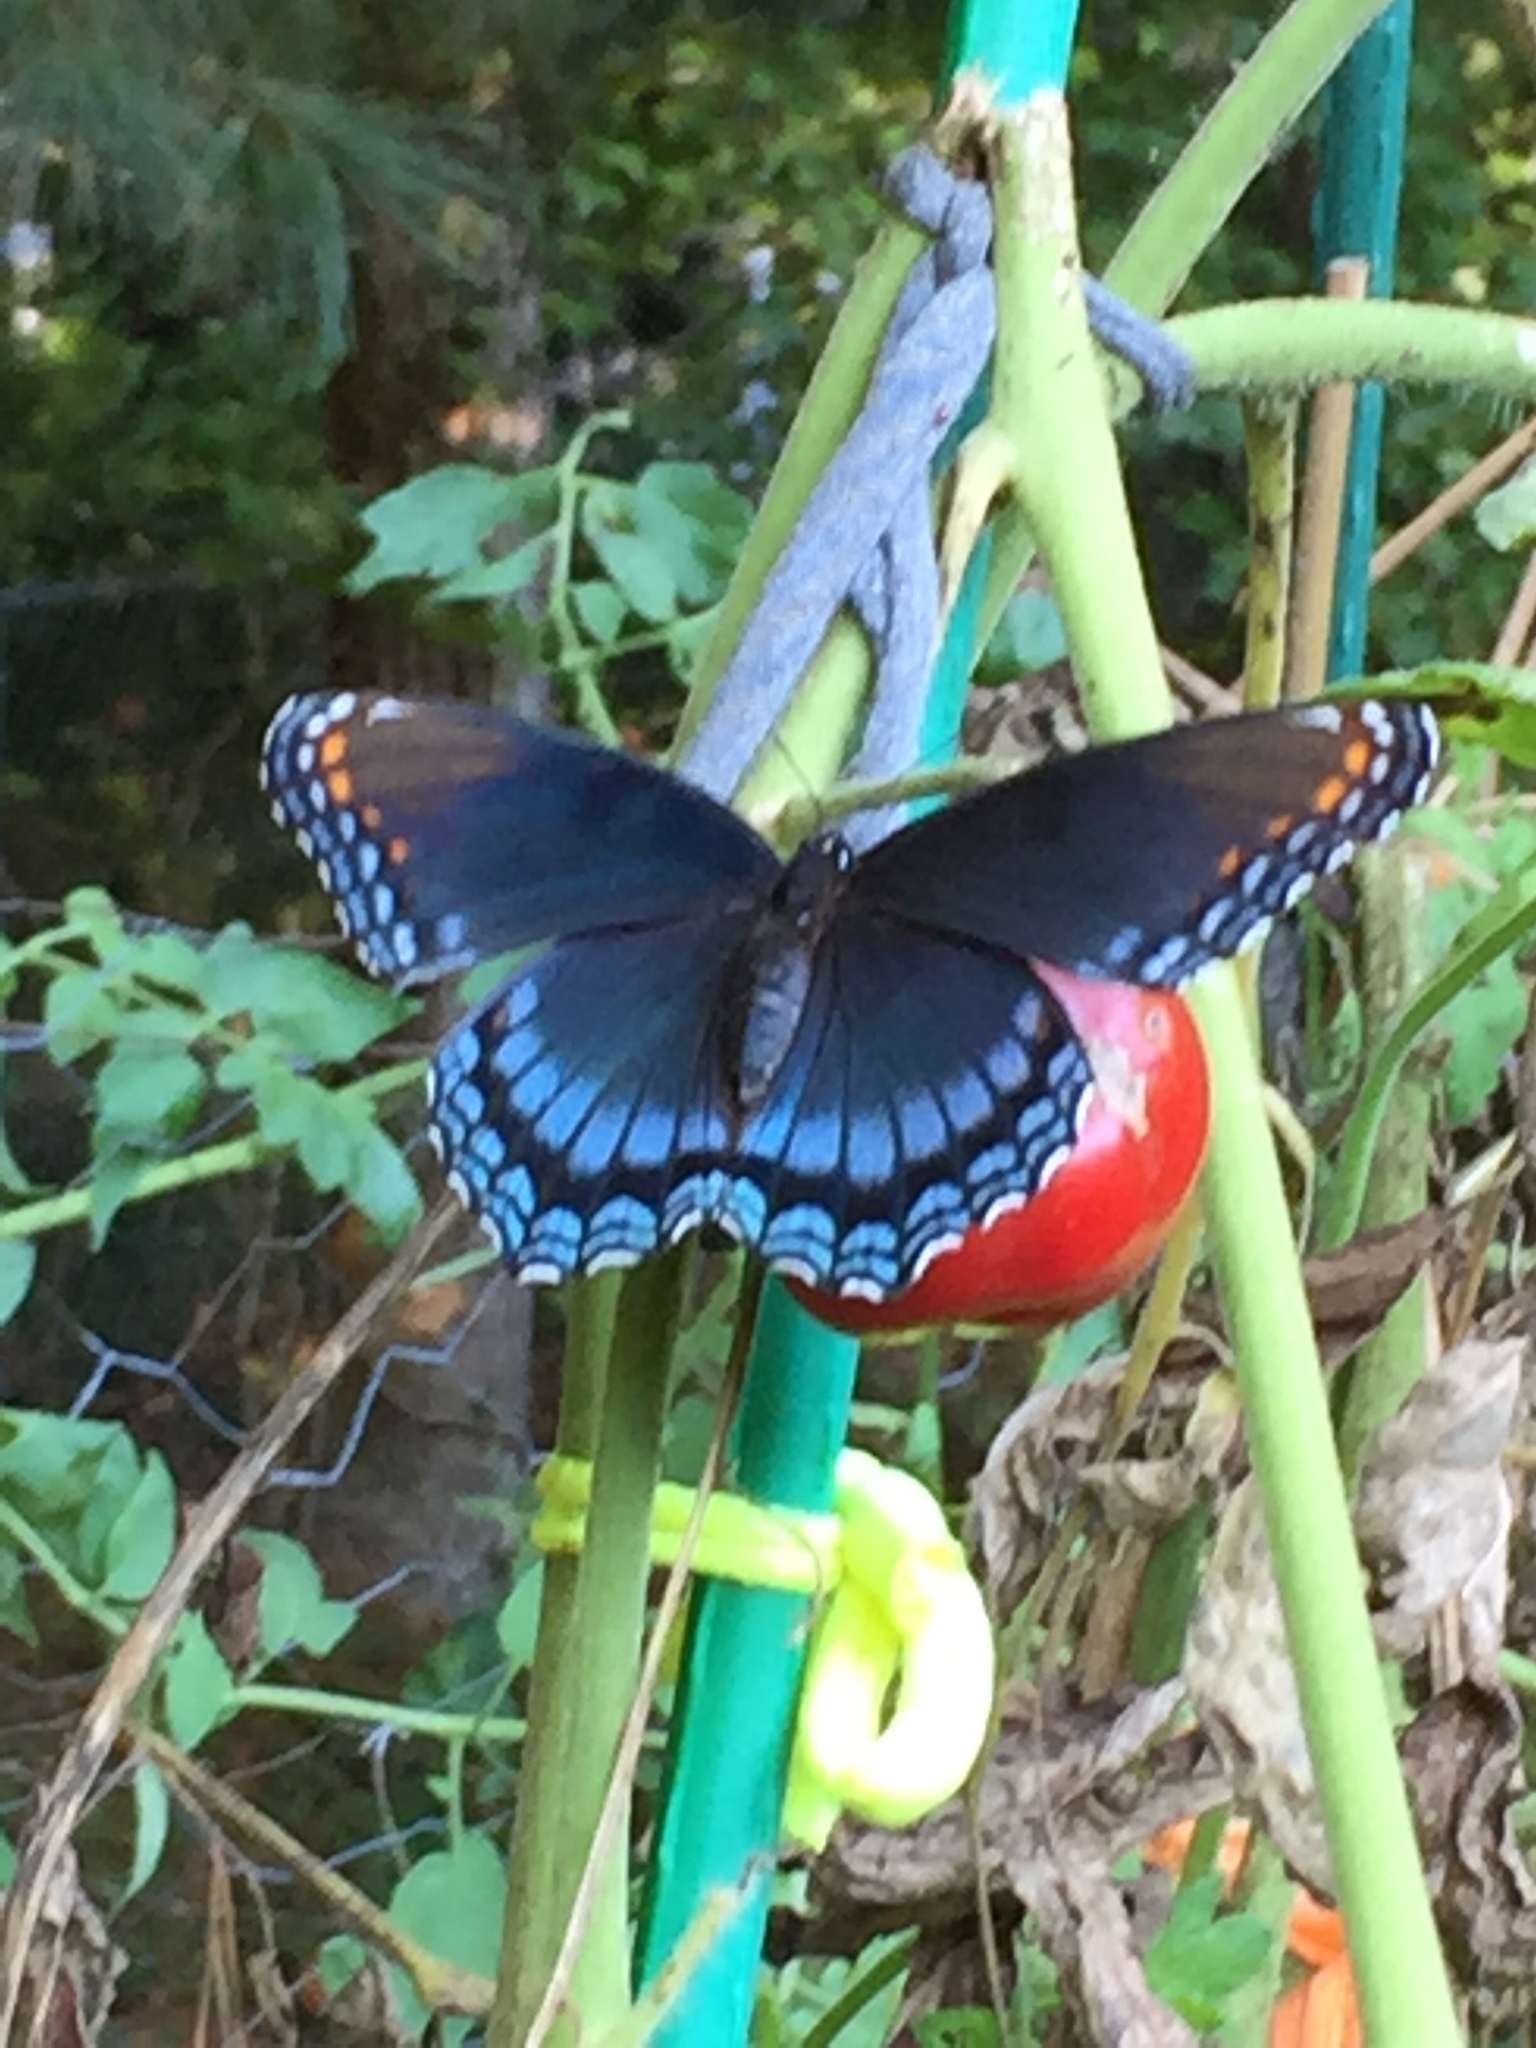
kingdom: Animalia
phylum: Arthropoda
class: Insecta
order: Lepidoptera
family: Nymphalidae
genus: Limenitis
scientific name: Limenitis astyanax
